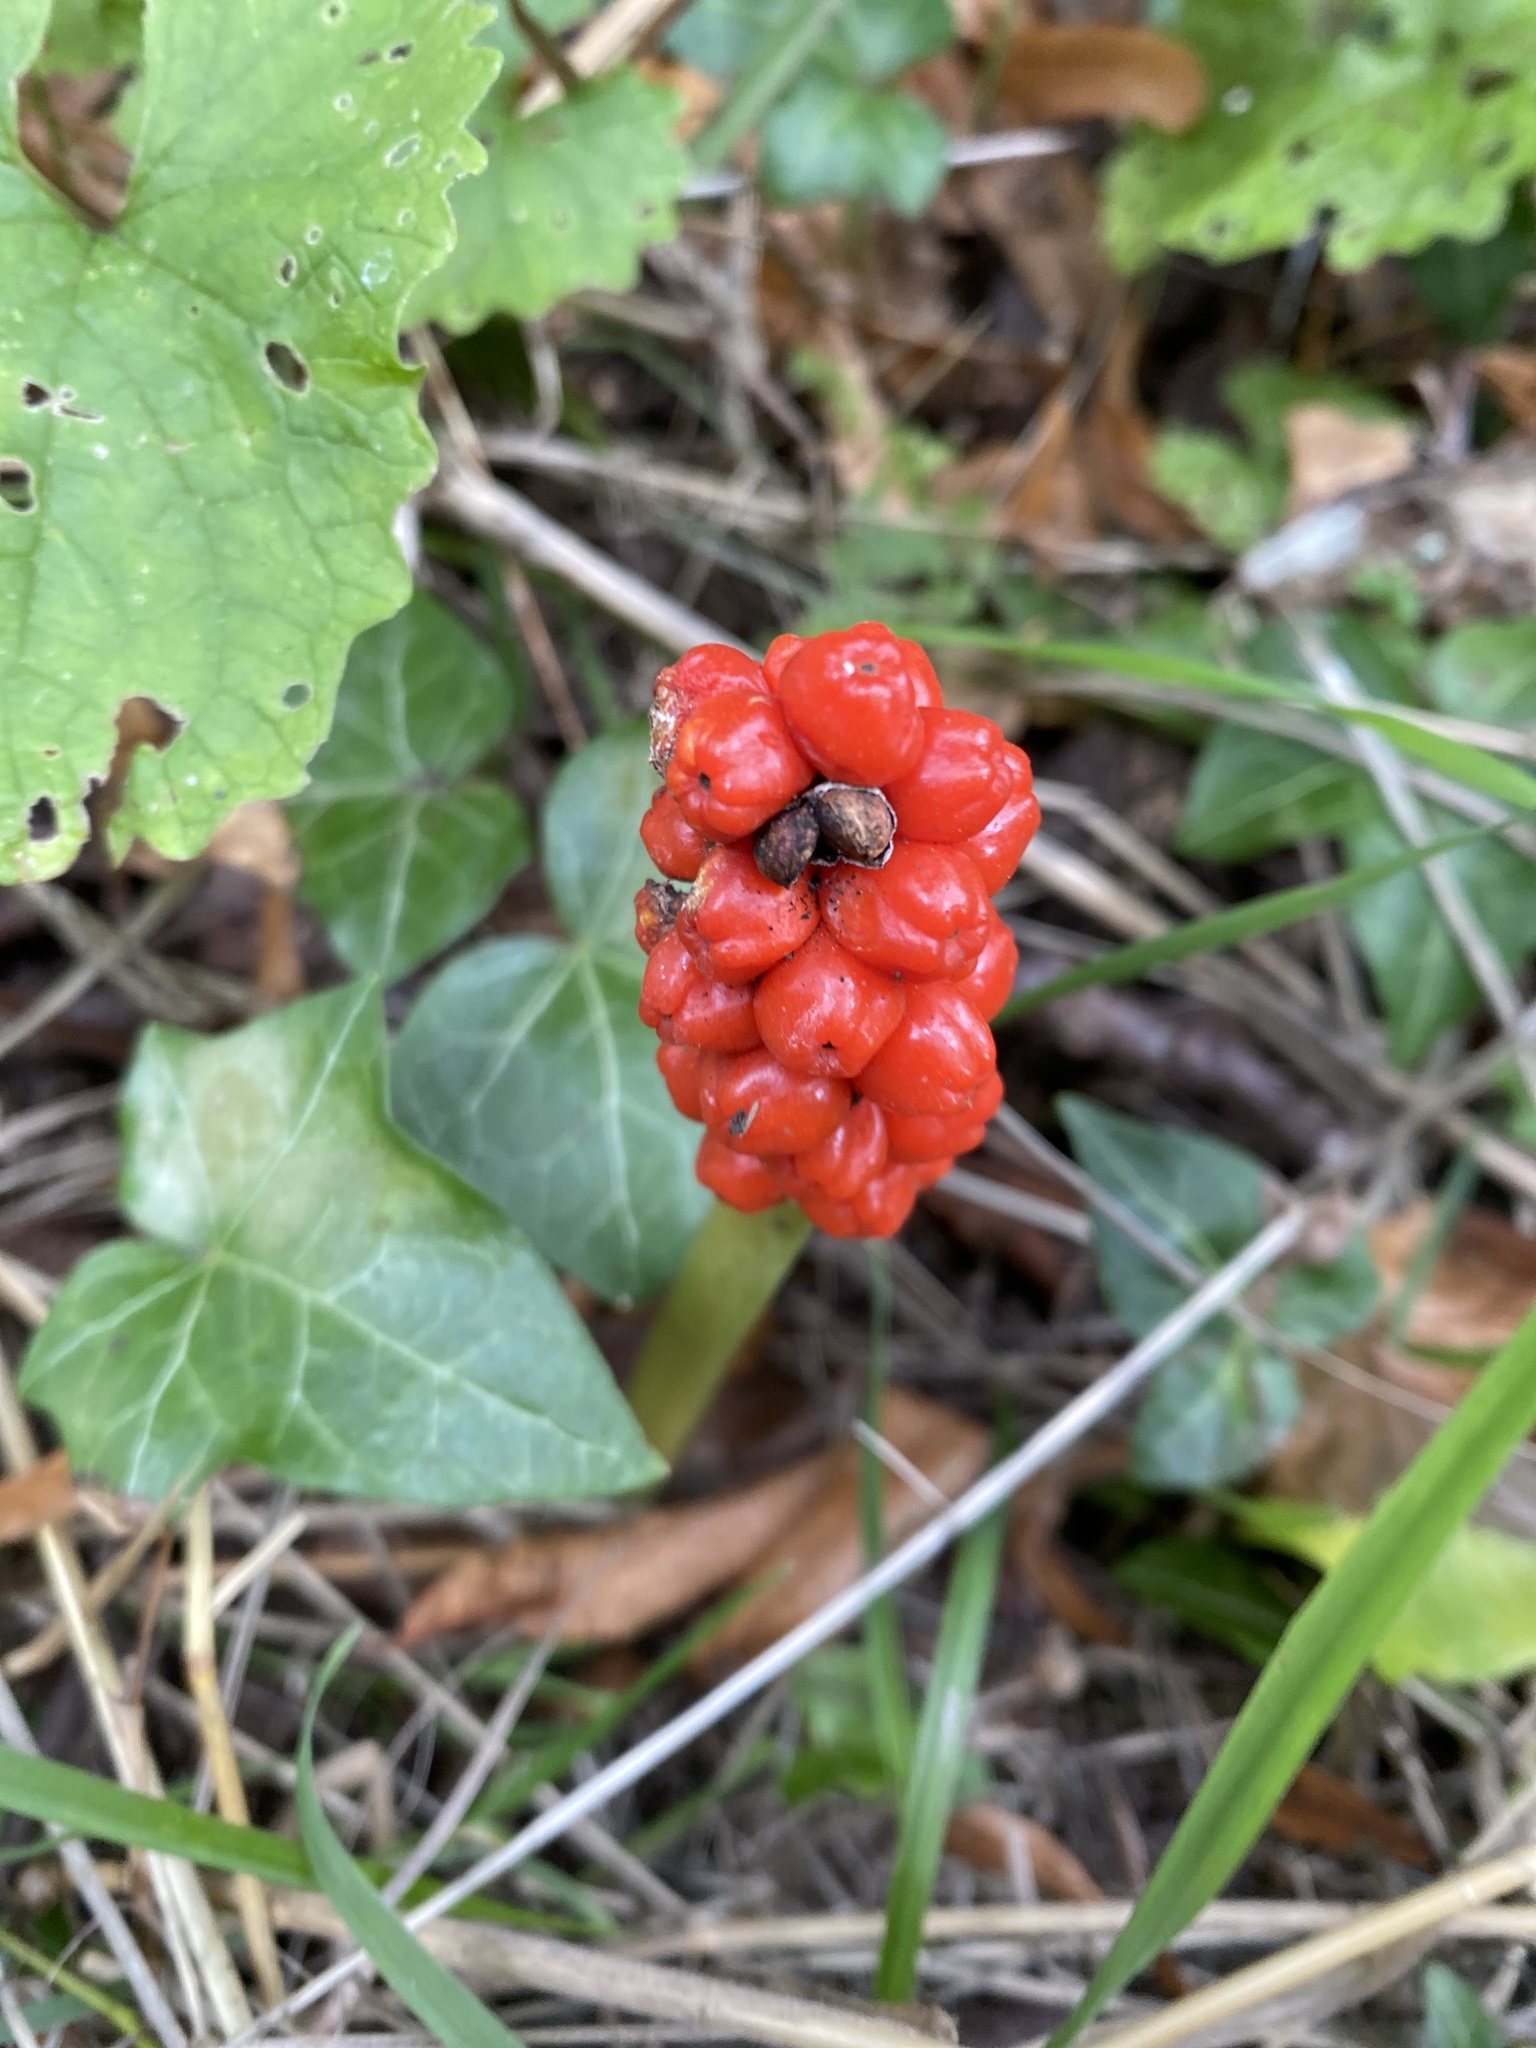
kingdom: Plantae
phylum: Tracheophyta
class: Liliopsida
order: Alismatales
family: Araceae
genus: Arum
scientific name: Arum maculatum
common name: Lords-and-ladies
